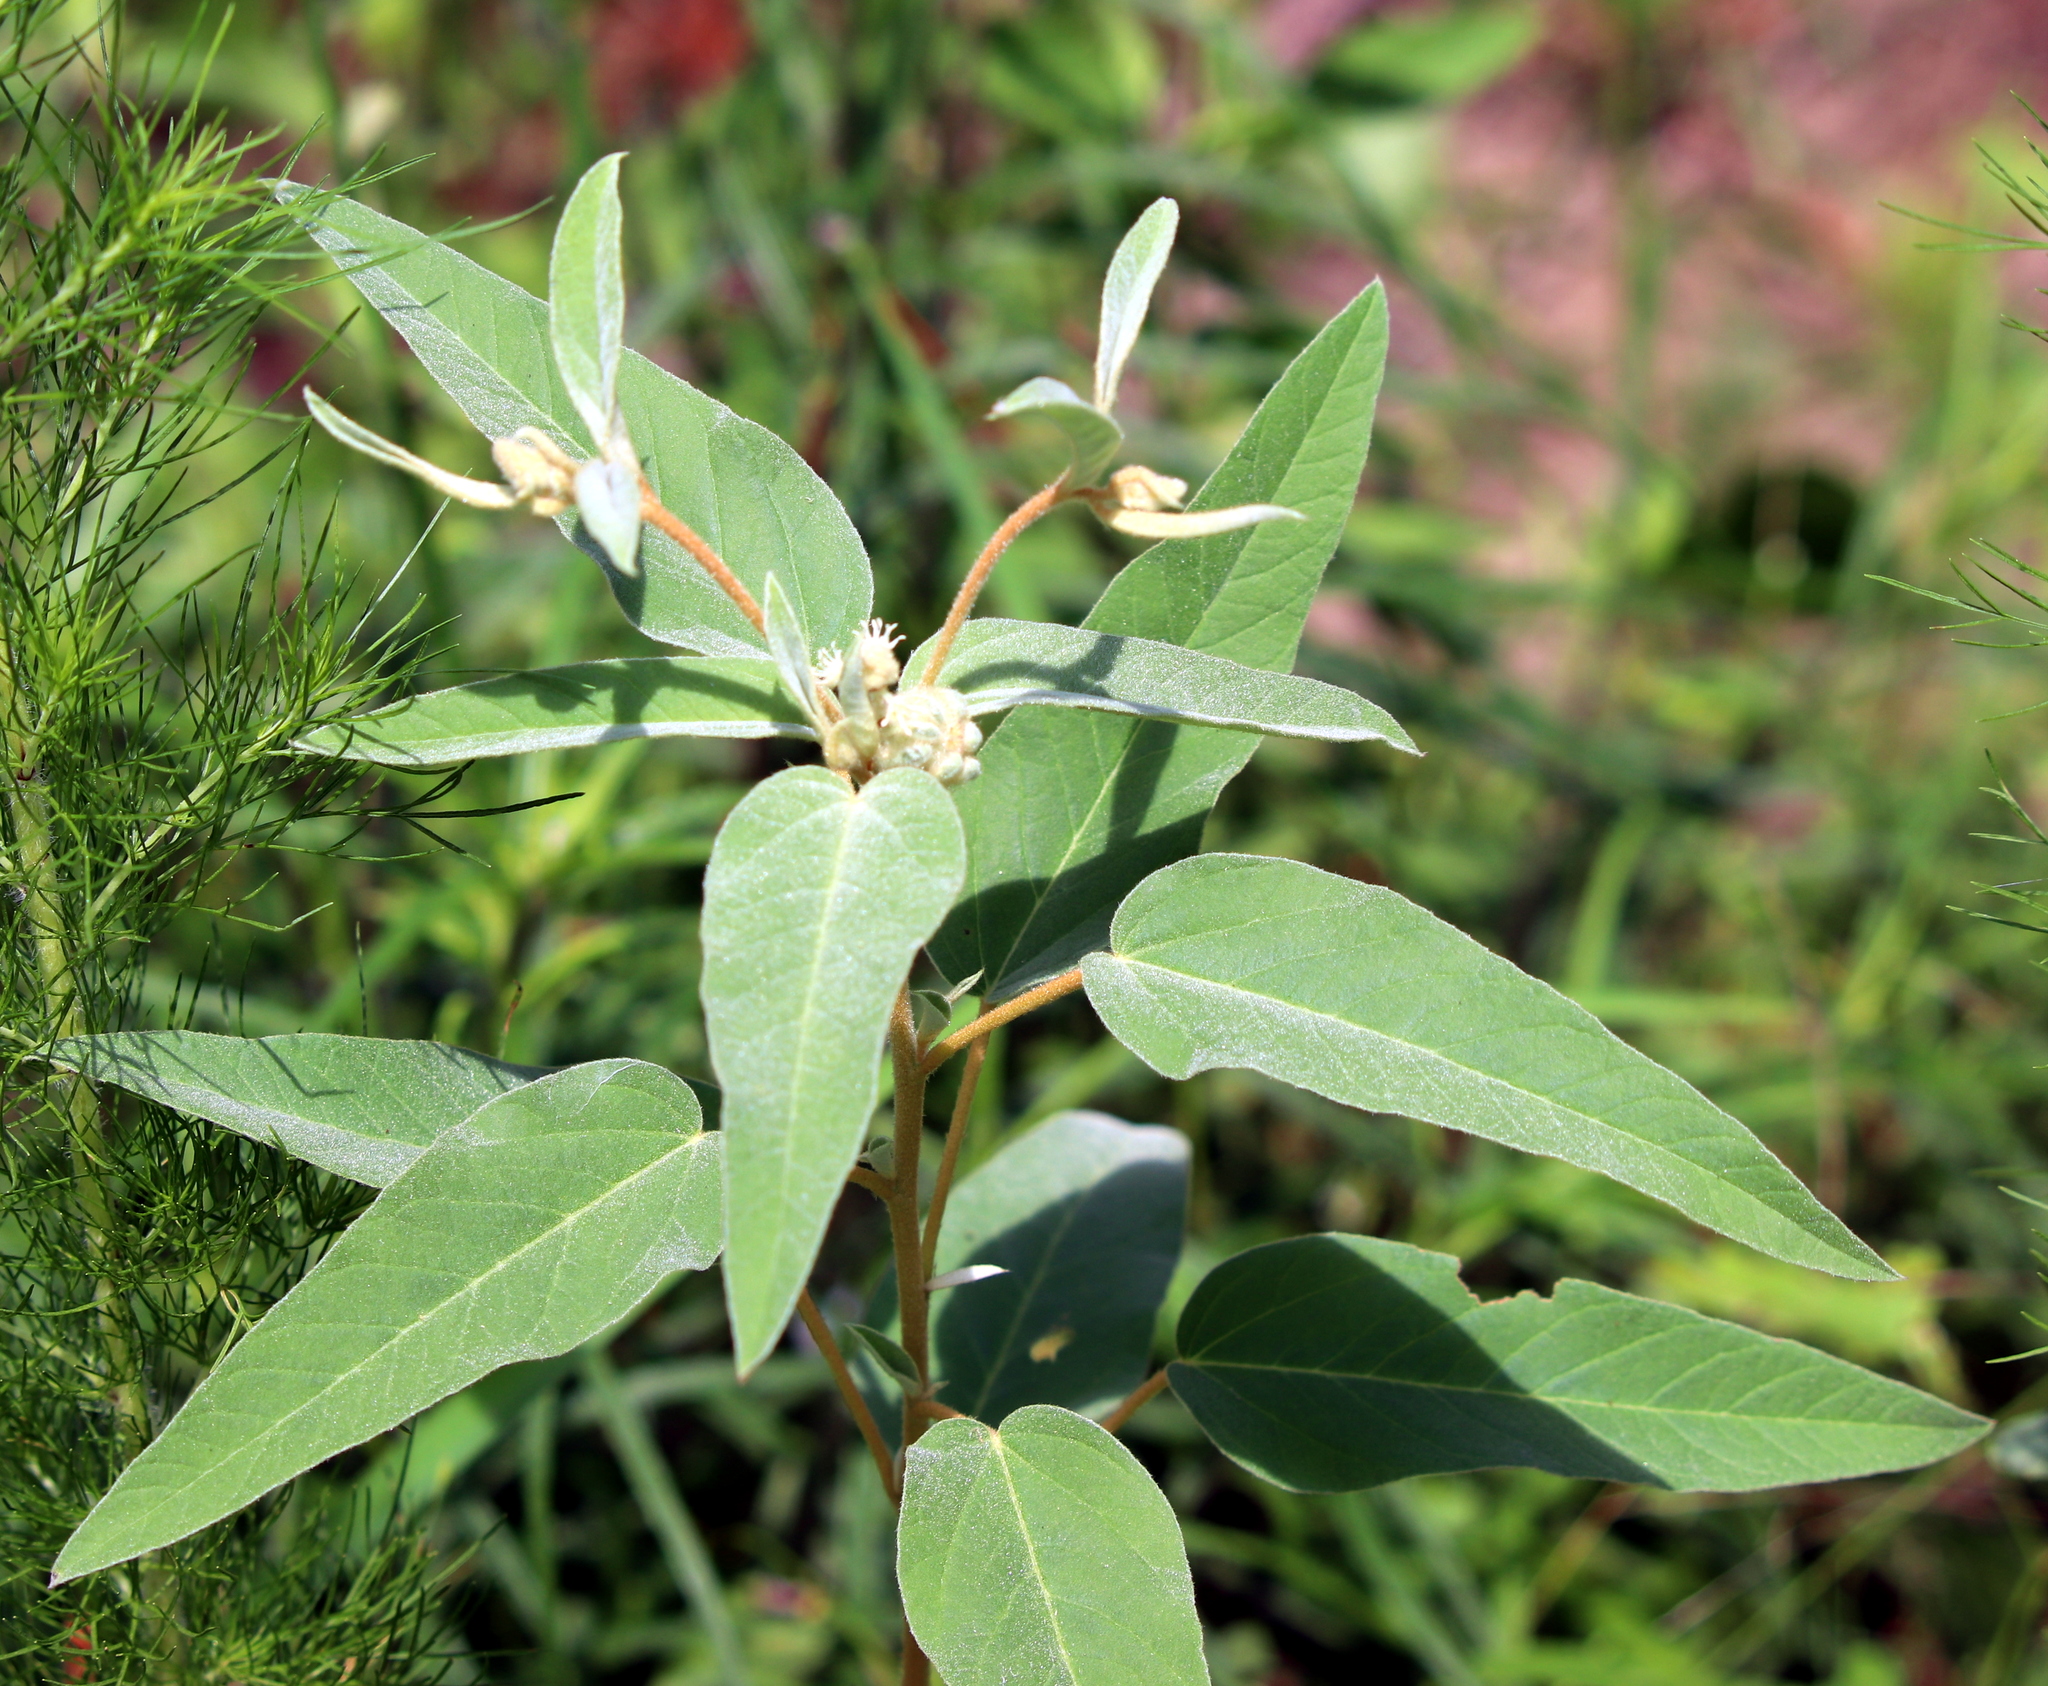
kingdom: Plantae
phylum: Tracheophyta
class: Magnoliopsida
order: Malpighiales
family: Euphorbiaceae
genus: Croton
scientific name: Croton lindheimeri
